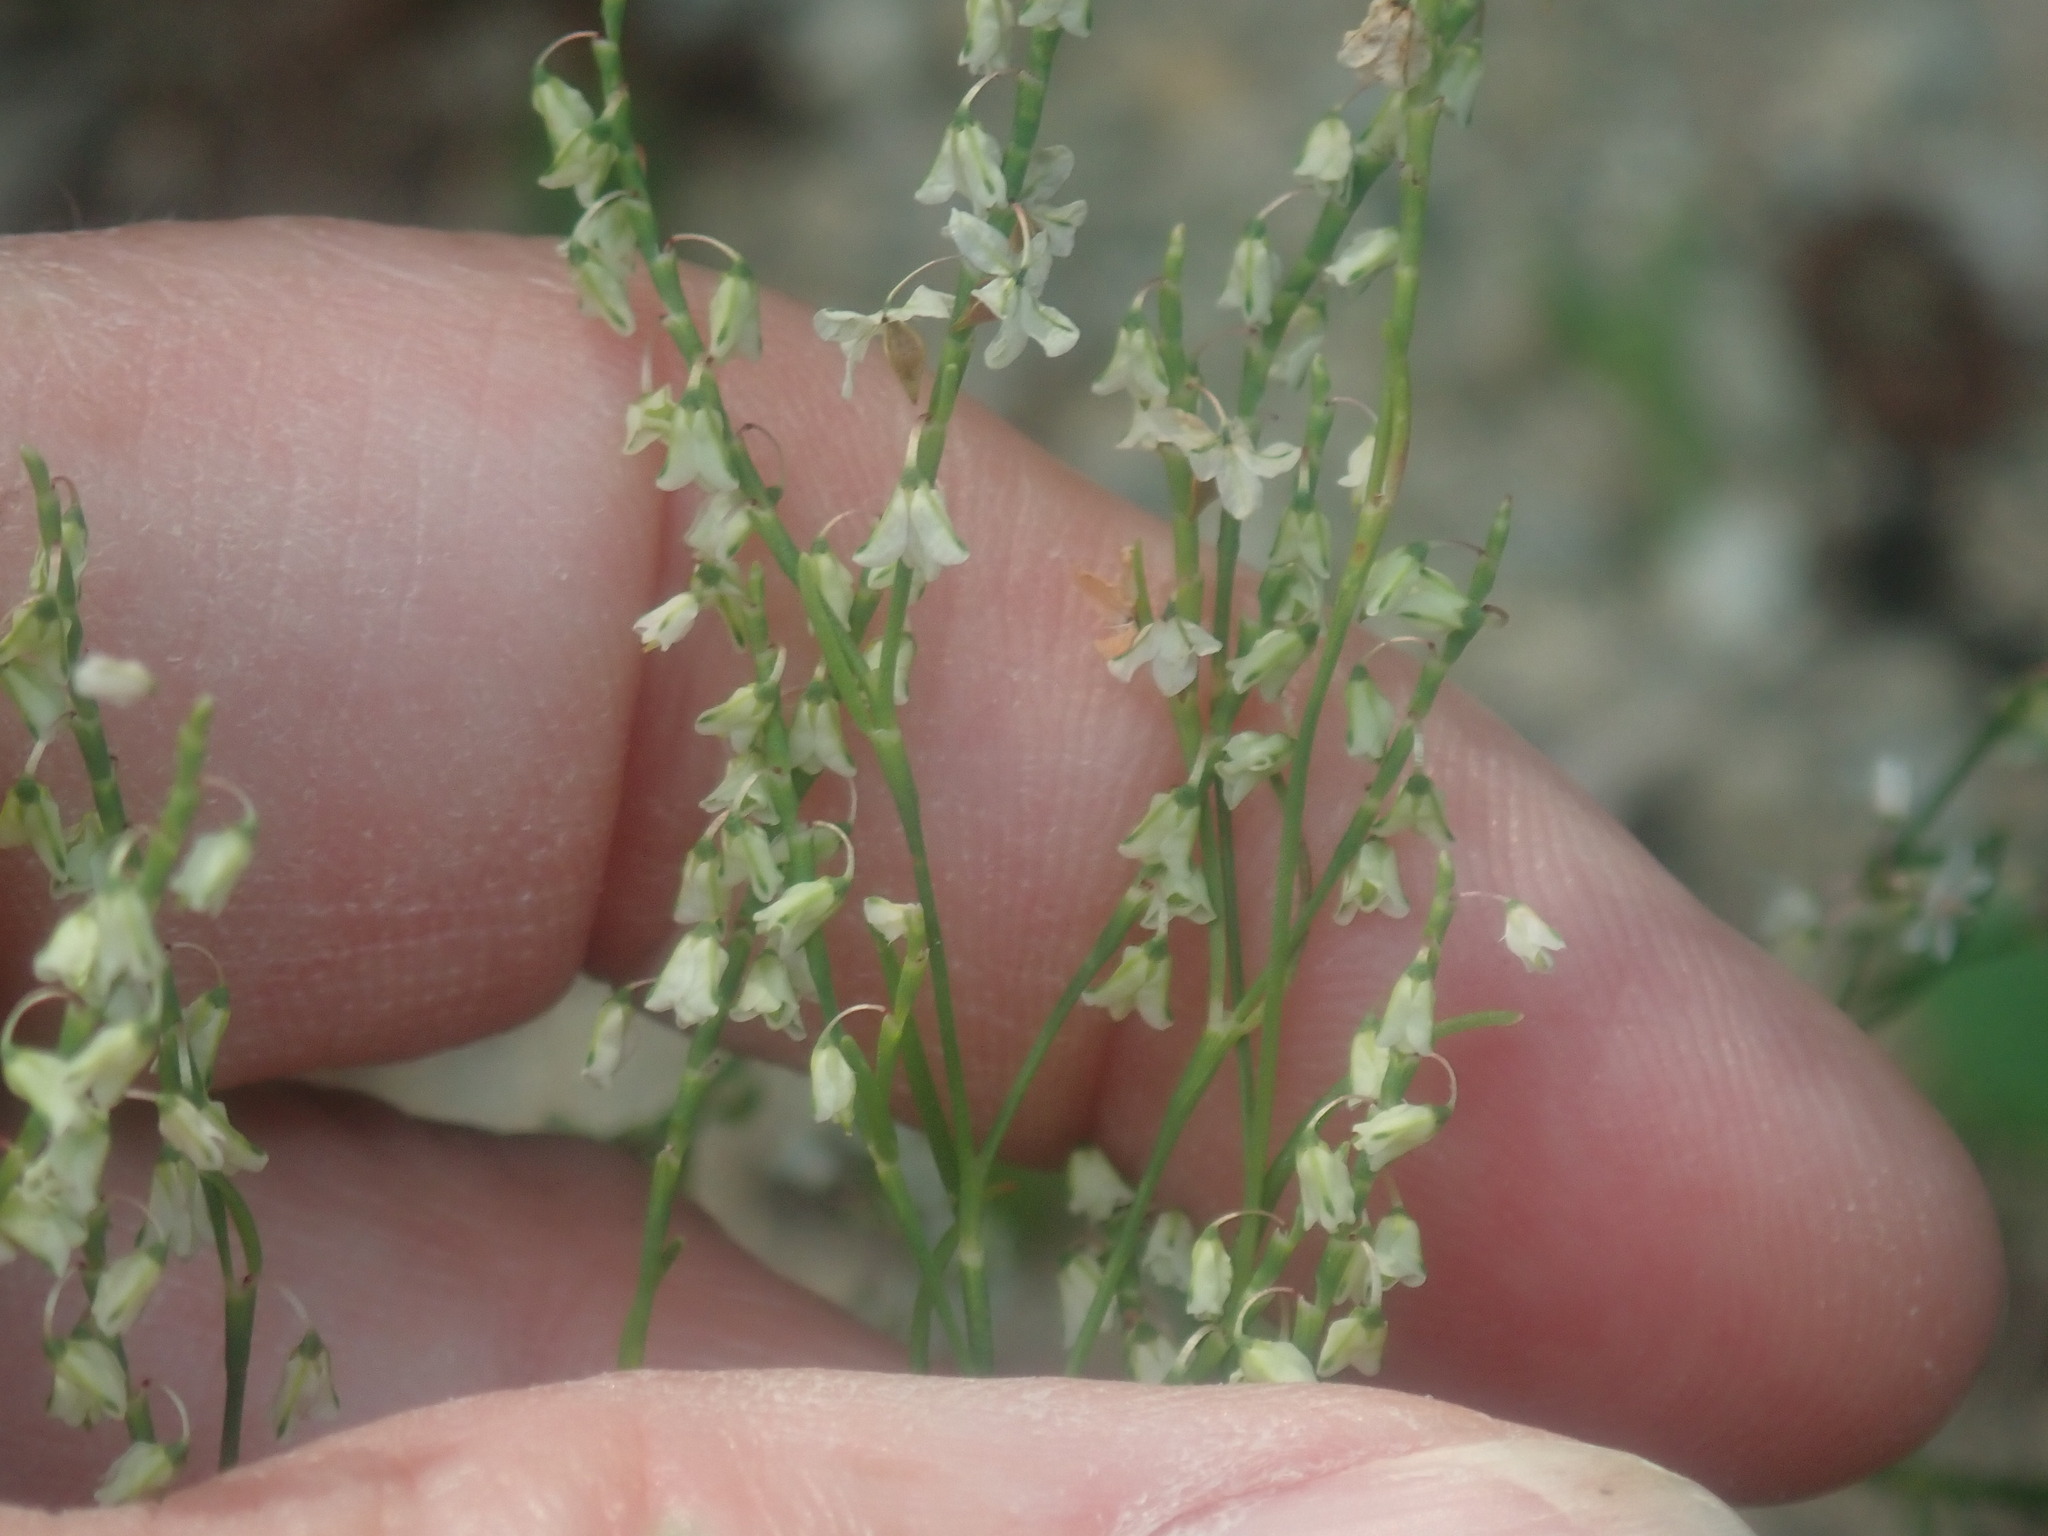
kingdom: Plantae
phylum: Tracheophyta
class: Magnoliopsida
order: Caryophyllales
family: Polygonaceae
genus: Polygonella
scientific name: Polygonella articulata
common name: Coastal jointweed
